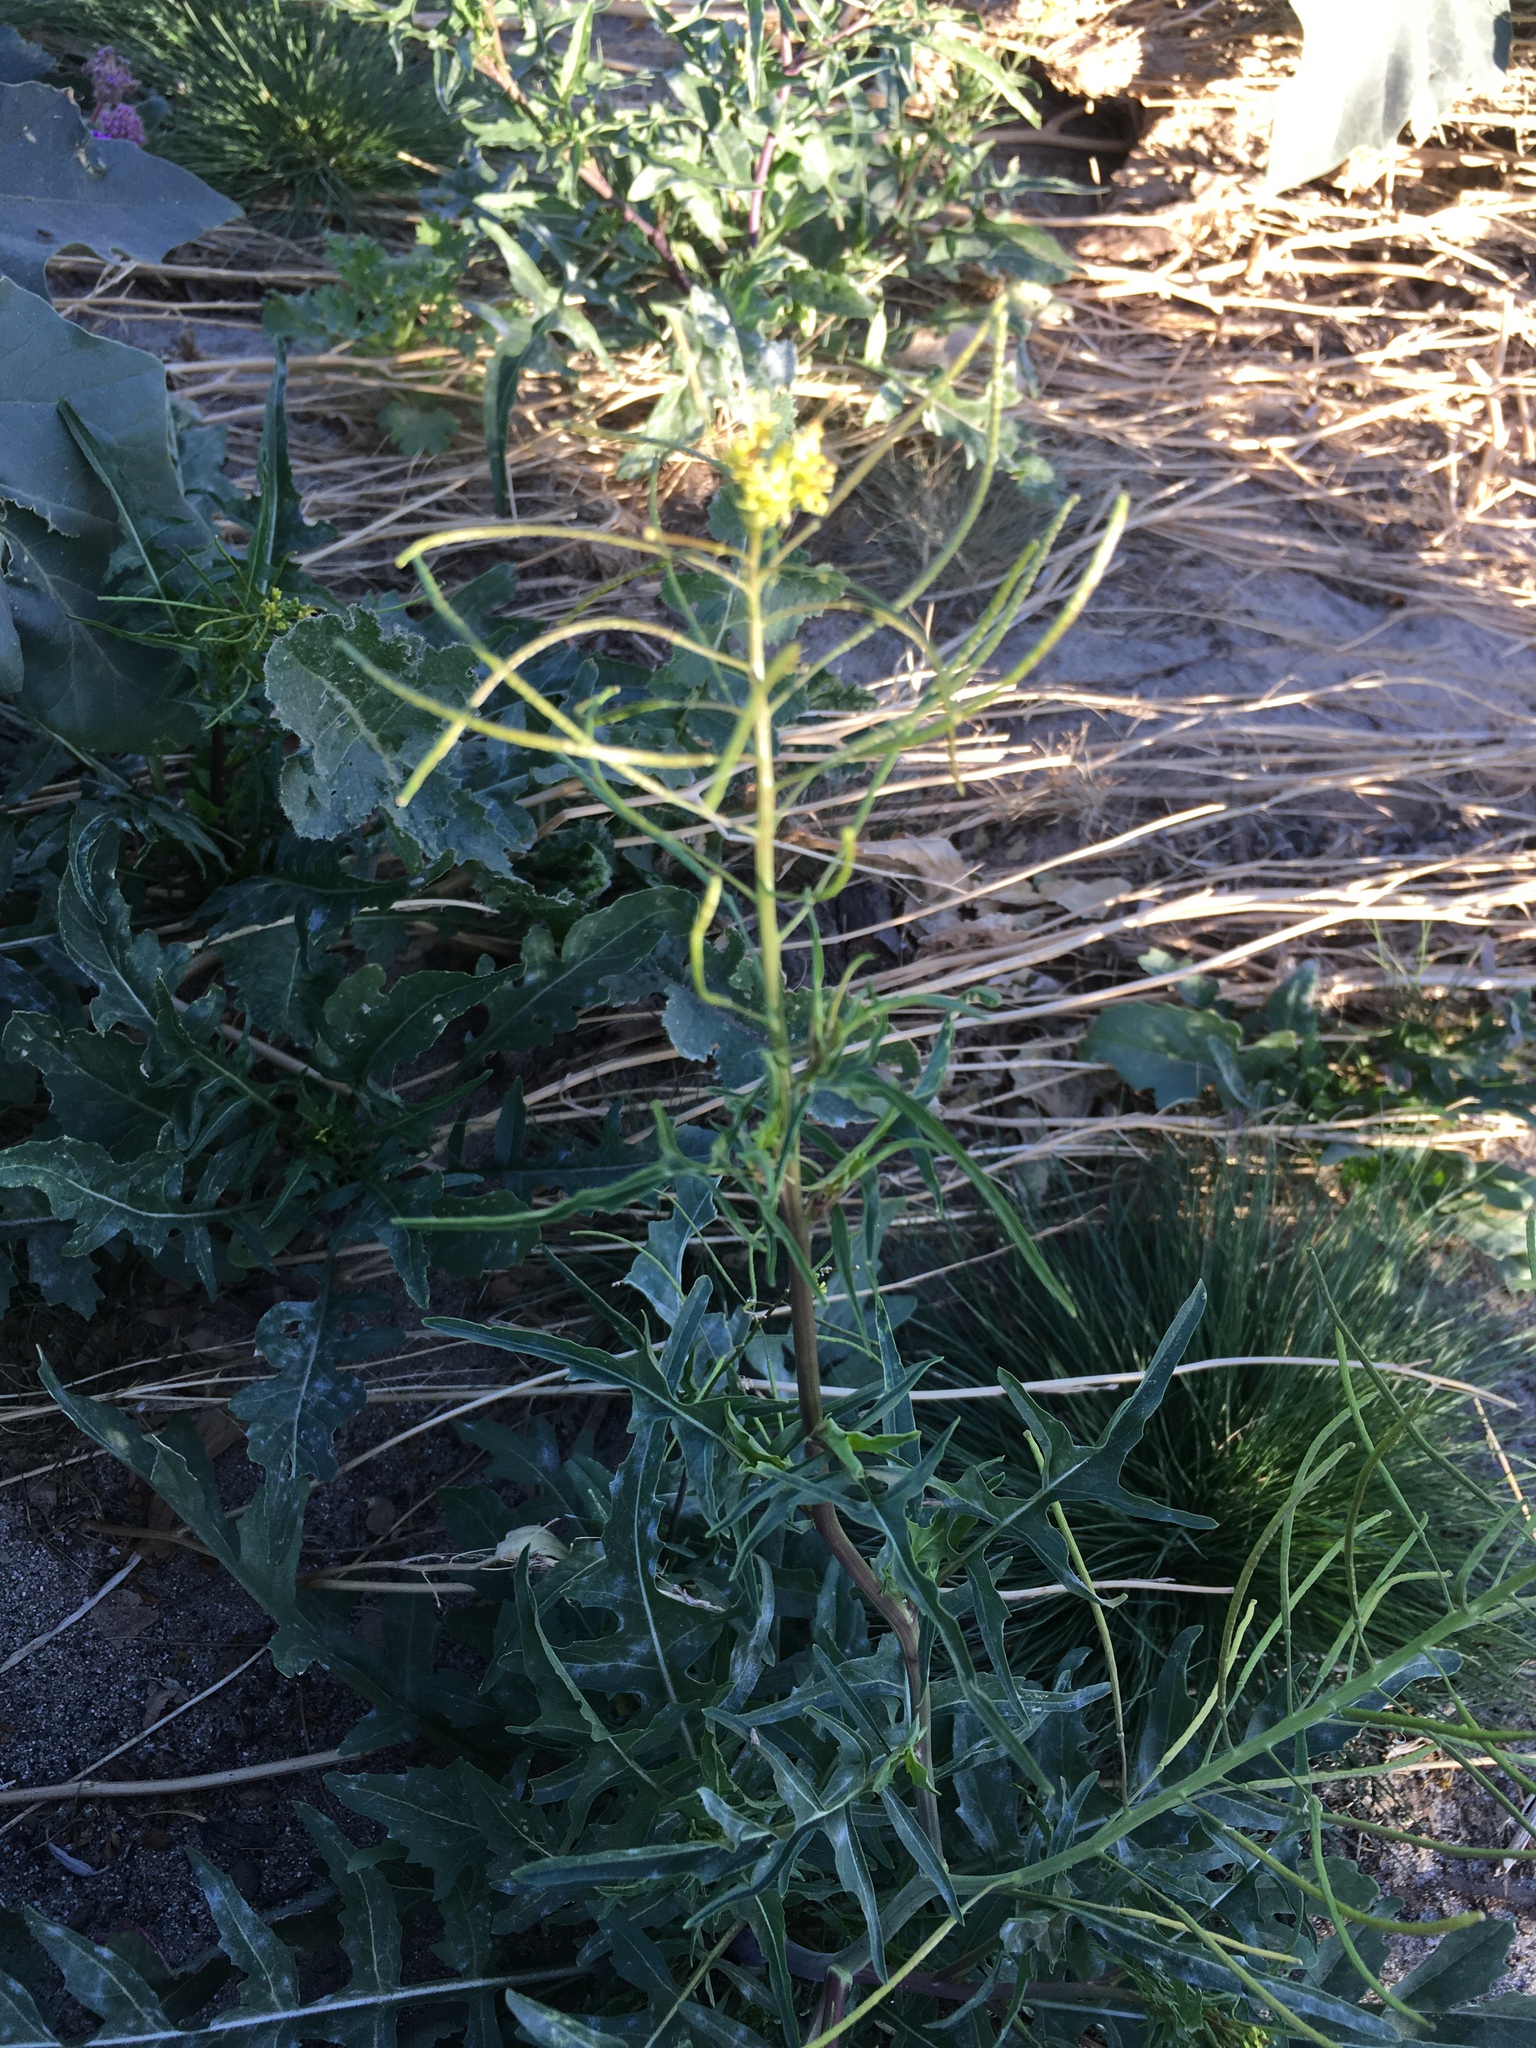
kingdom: Plantae
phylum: Tracheophyta
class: Magnoliopsida
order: Brassicales
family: Brassicaceae
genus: Sisymbrium
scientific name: Sisymbrium irio
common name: London rocket
